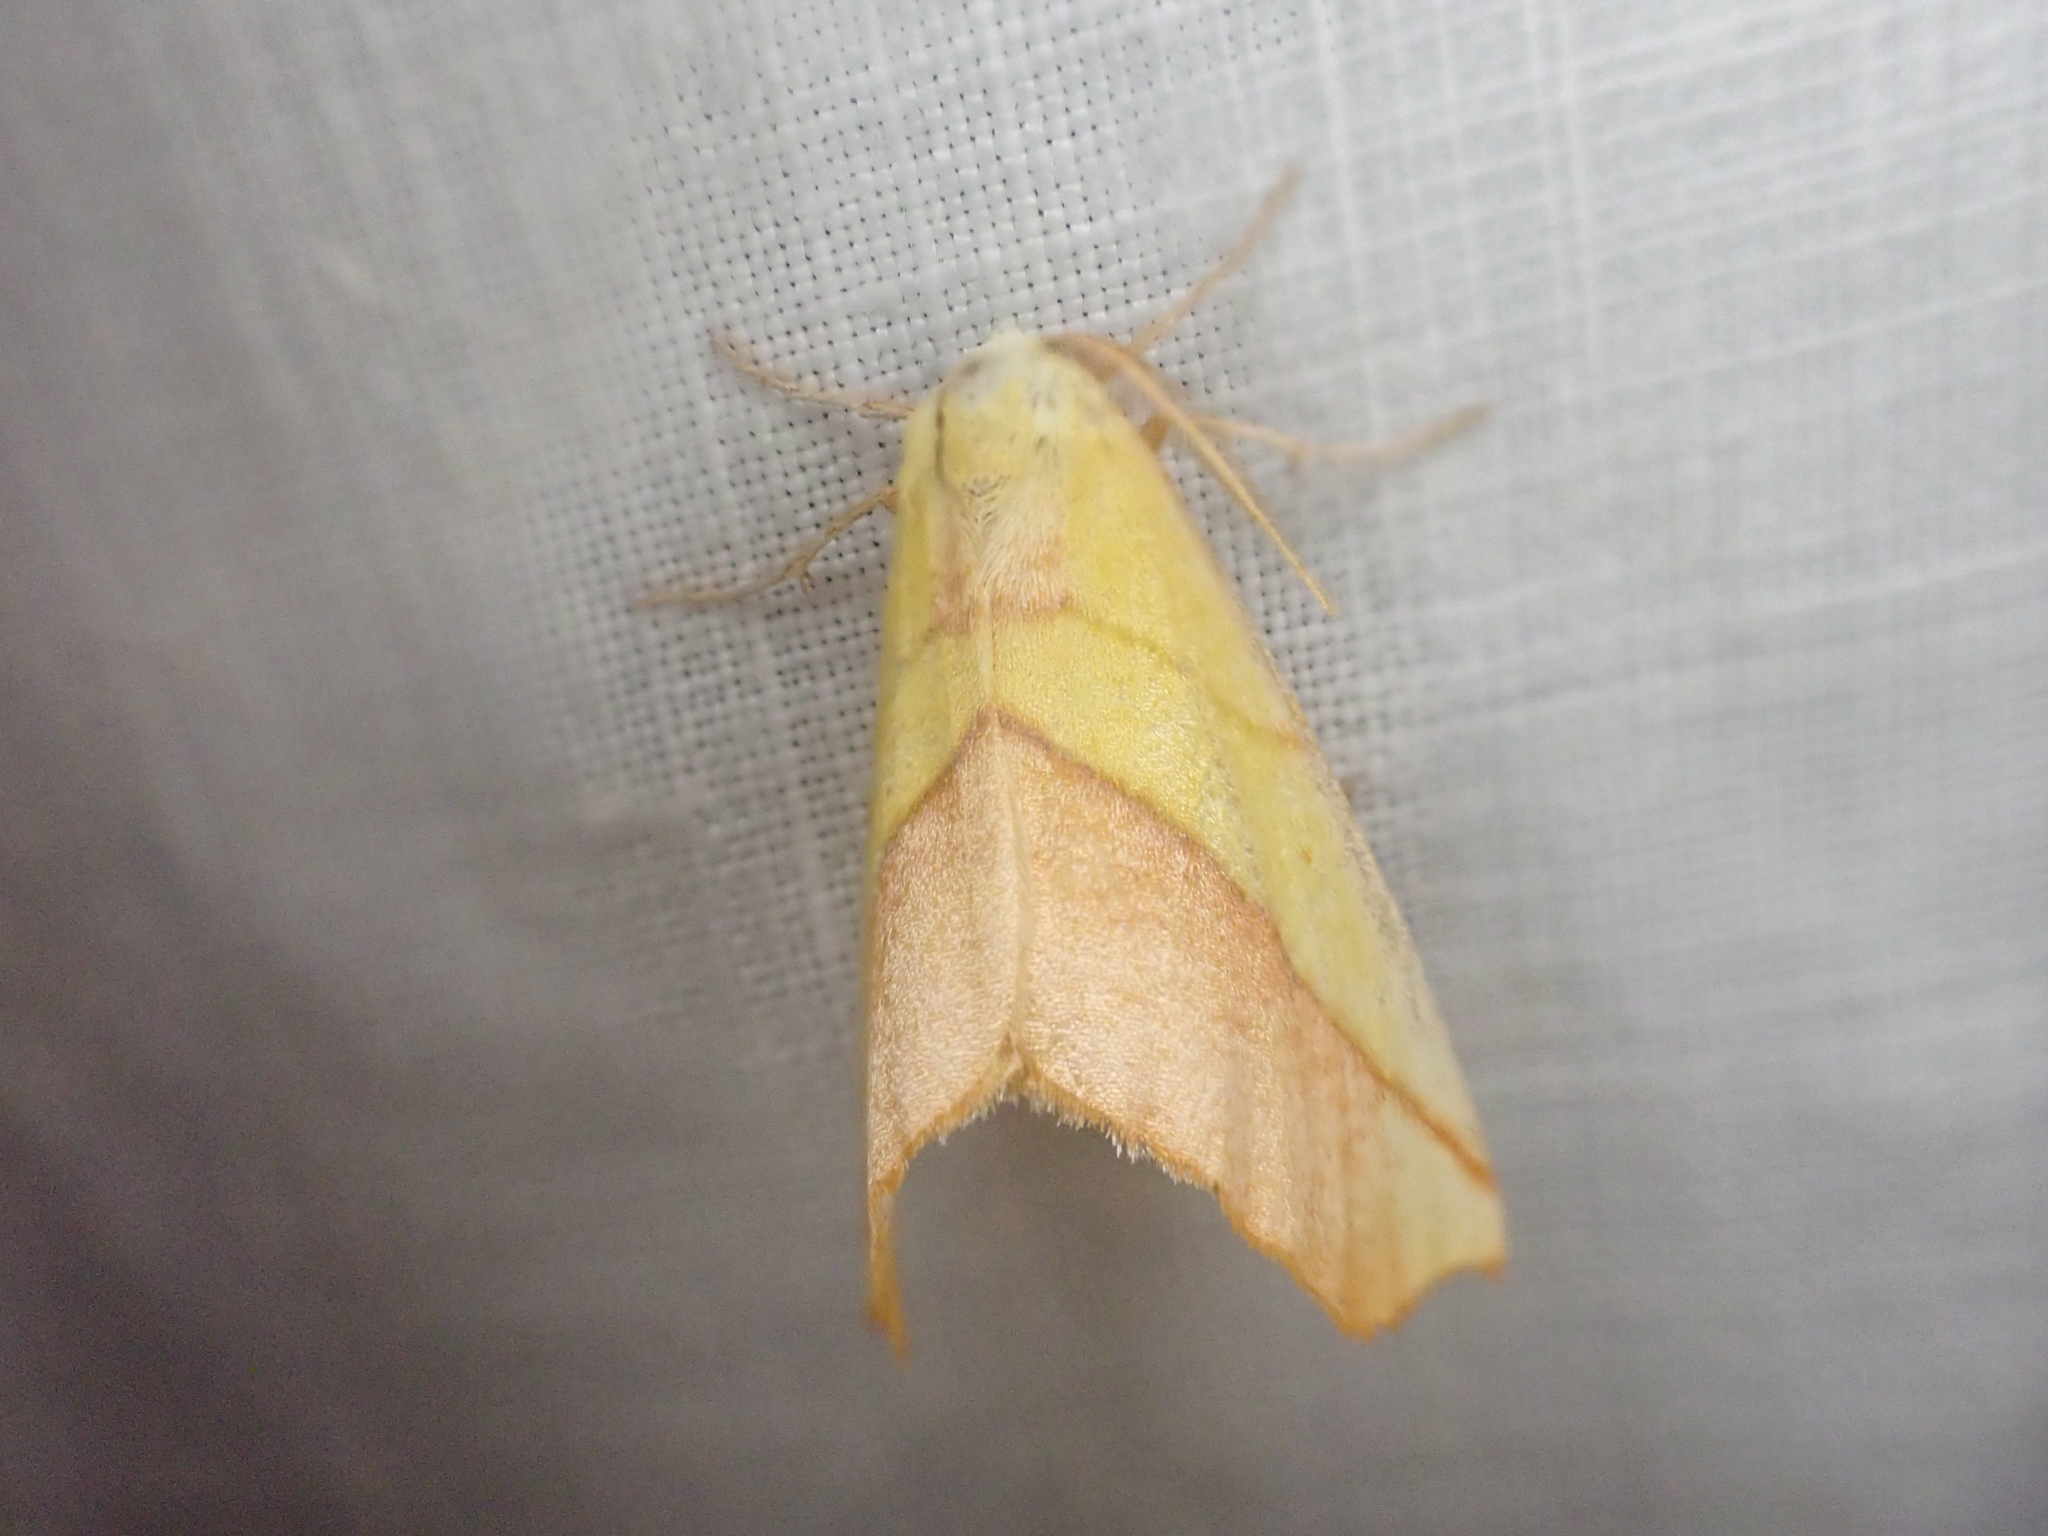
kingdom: Animalia
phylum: Arthropoda
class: Insecta
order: Lepidoptera
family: Geometridae
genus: Sicya
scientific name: Sicya macularia
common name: Sharp-lined yellow
